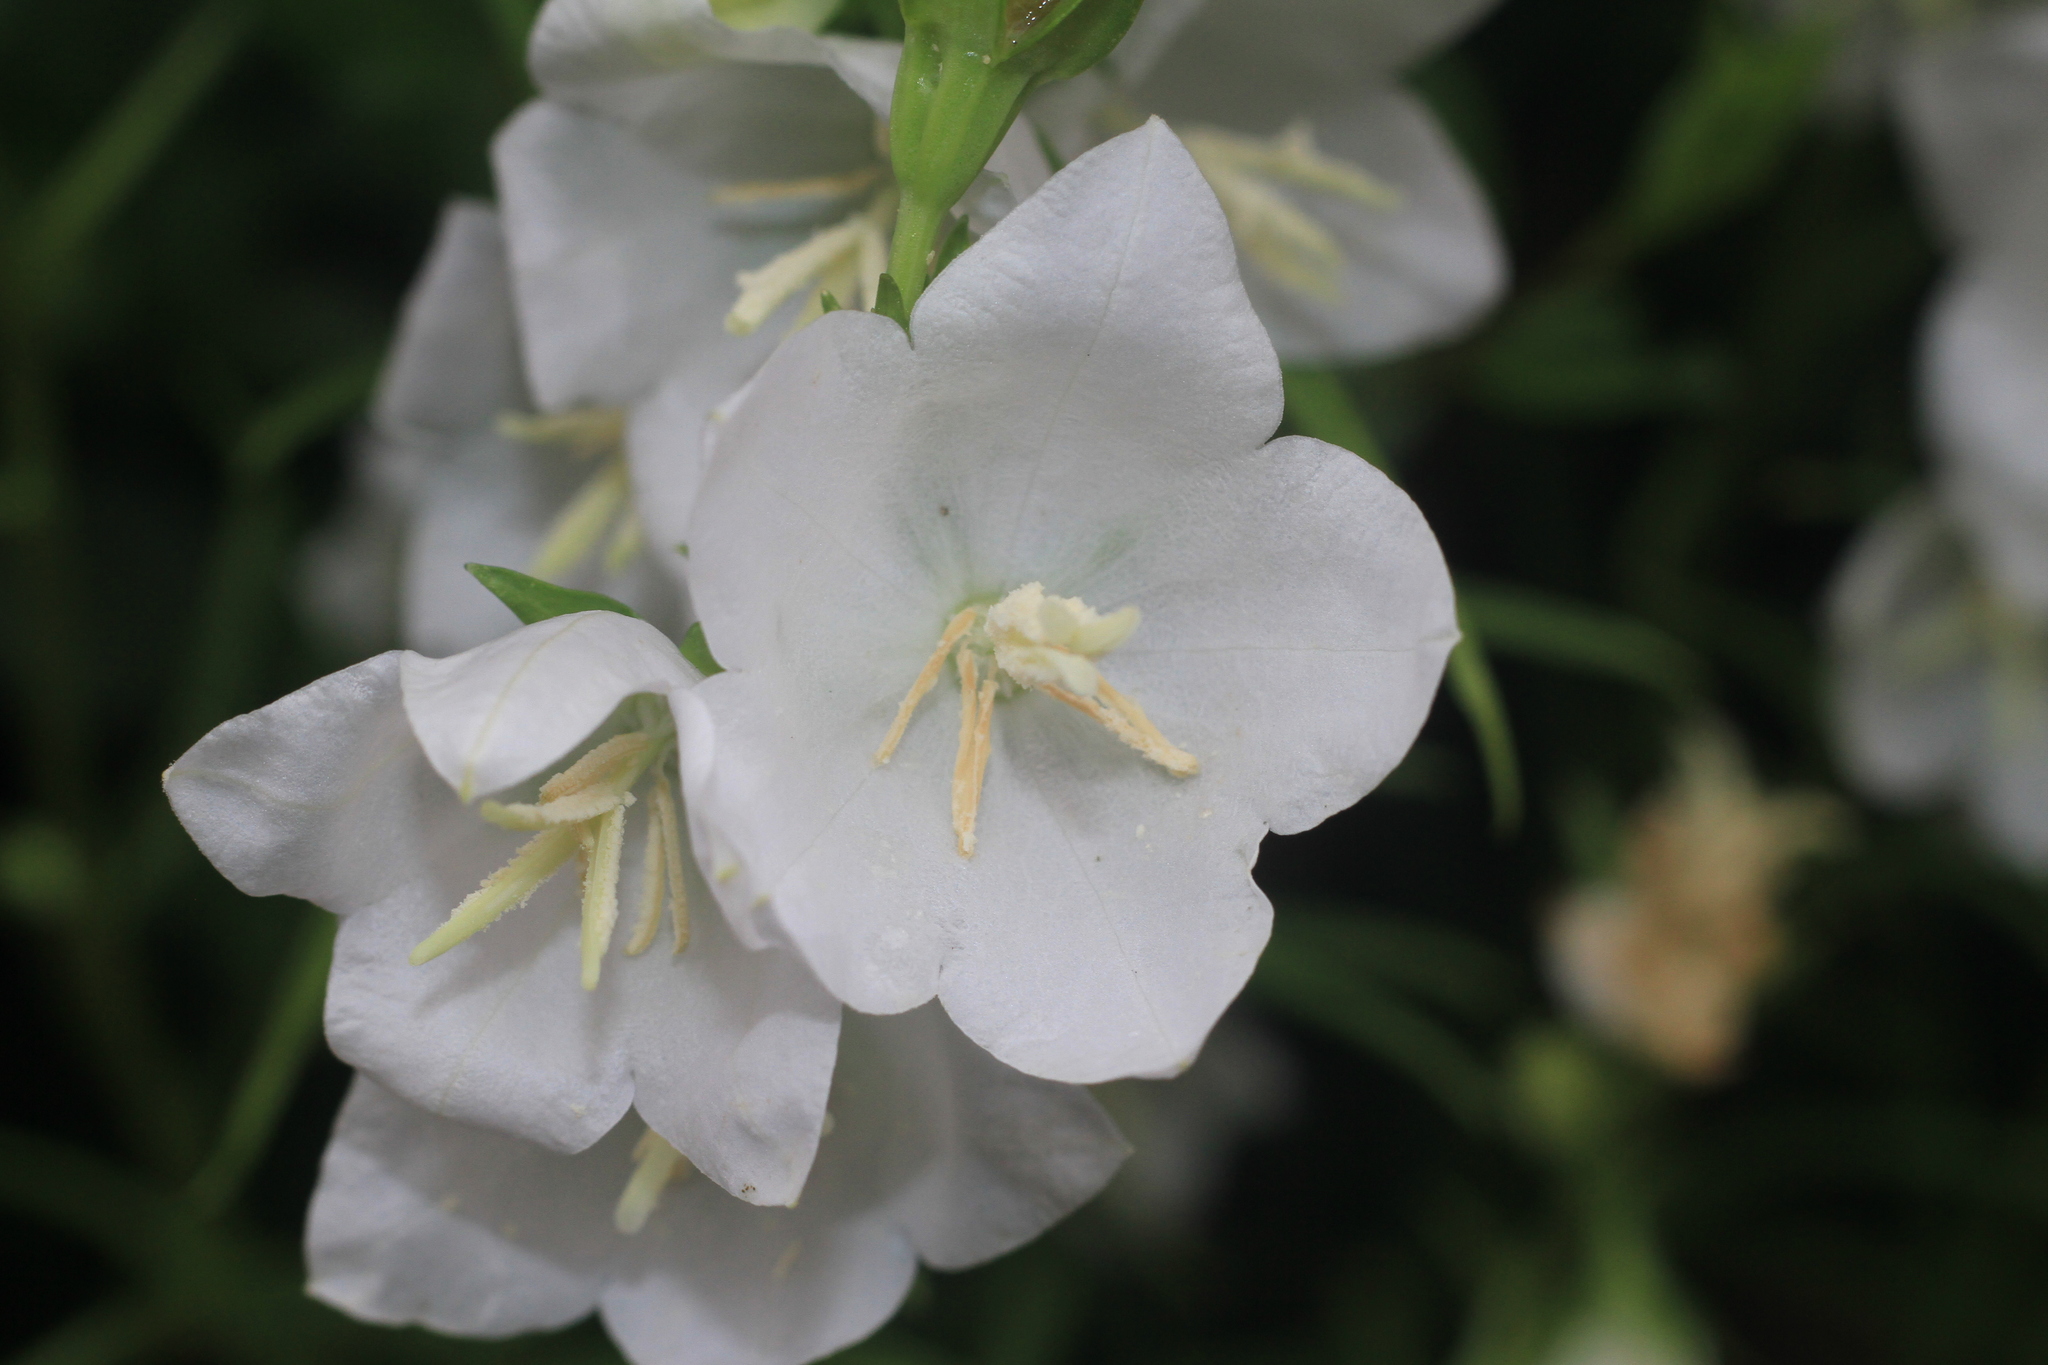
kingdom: Plantae
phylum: Tracheophyta
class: Magnoliopsida
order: Asterales
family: Campanulaceae
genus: Campanula
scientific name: Campanula persicifolia
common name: Peach-leaved bellflower
